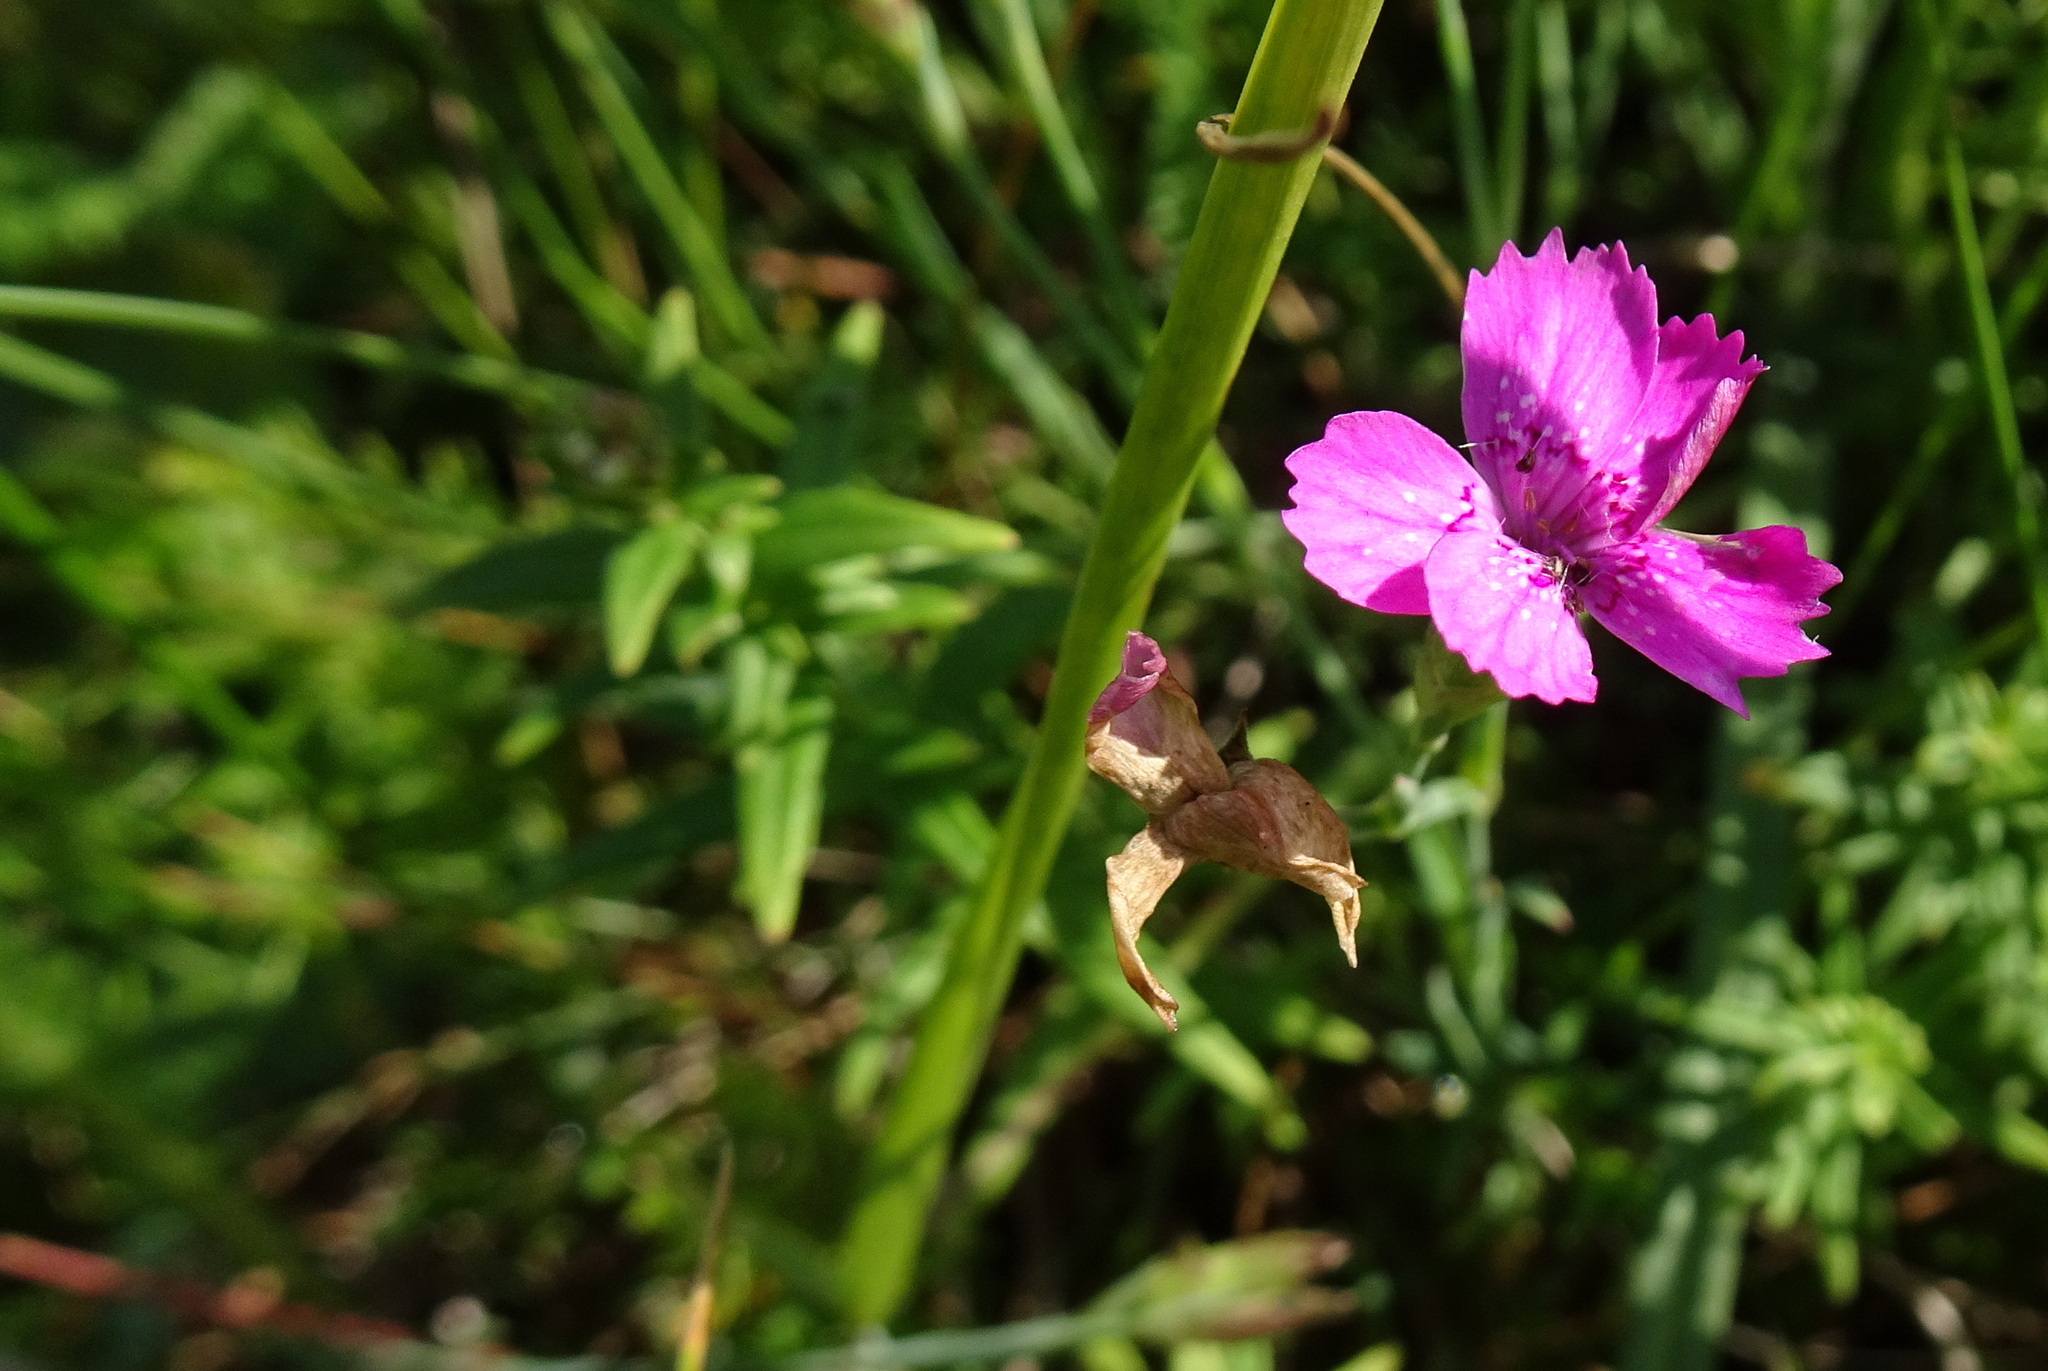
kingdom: Plantae
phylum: Tracheophyta
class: Magnoliopsida
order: Caryophyllales
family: Caryophyllaceae
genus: Dianthus
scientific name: Dianthus deltoides
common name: Maiden pink
